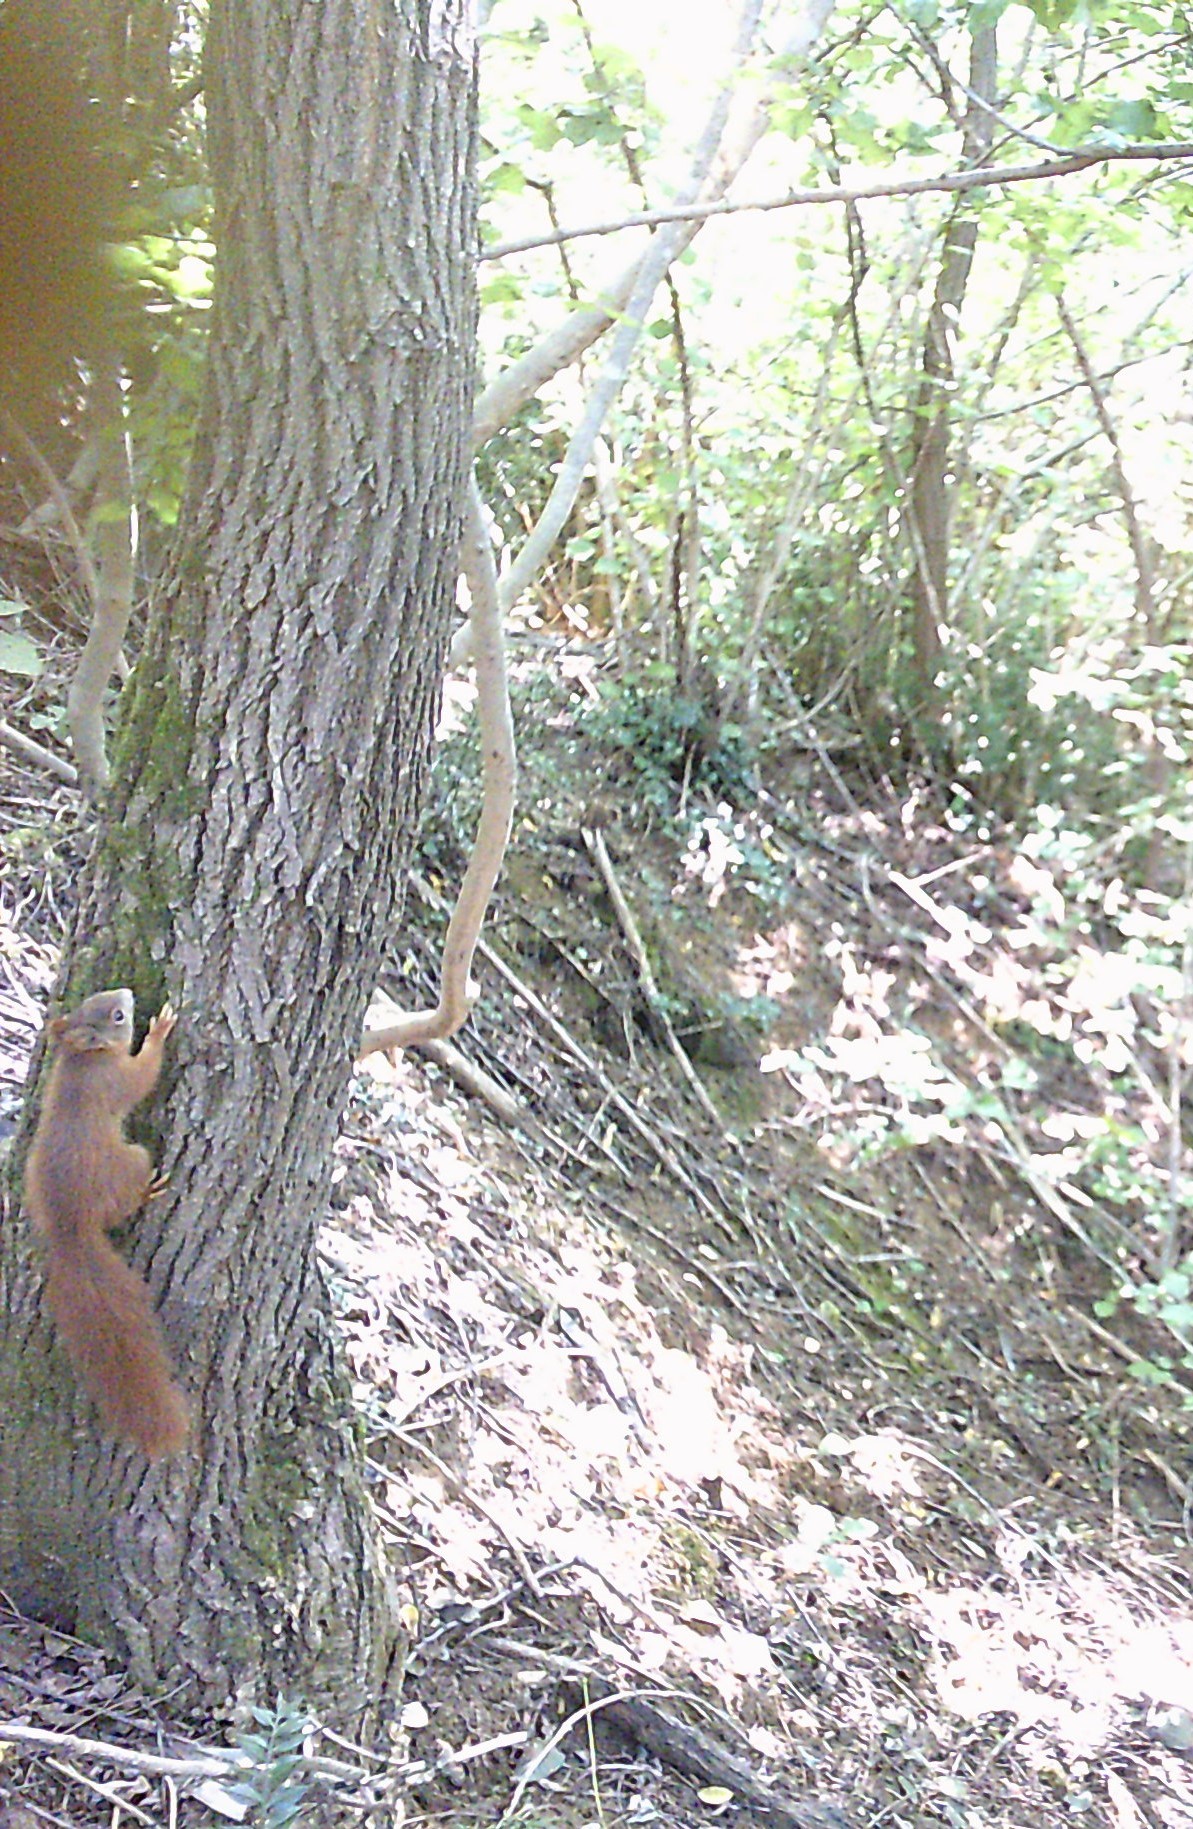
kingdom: Animalia
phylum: Chordata
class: Mammalia
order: Rodentia
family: Sciuridae
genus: Sciurus
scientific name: Sciurus vulgaris
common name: Eurasian red squirrel
